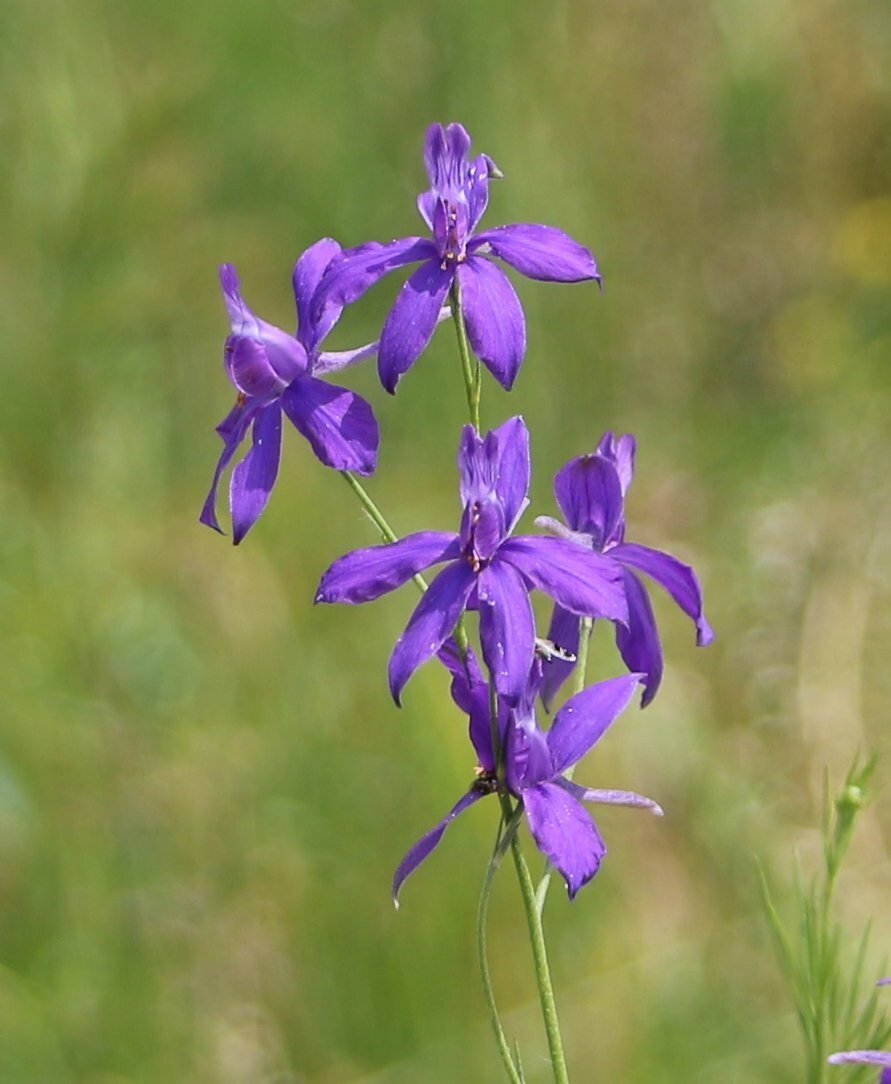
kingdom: Plantae
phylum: Tracheophyta
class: Magnoliopsida
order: Ranunculales
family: Ranunculaceae
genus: Delphinium
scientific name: Delphinium consolida
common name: Branching larkspur
